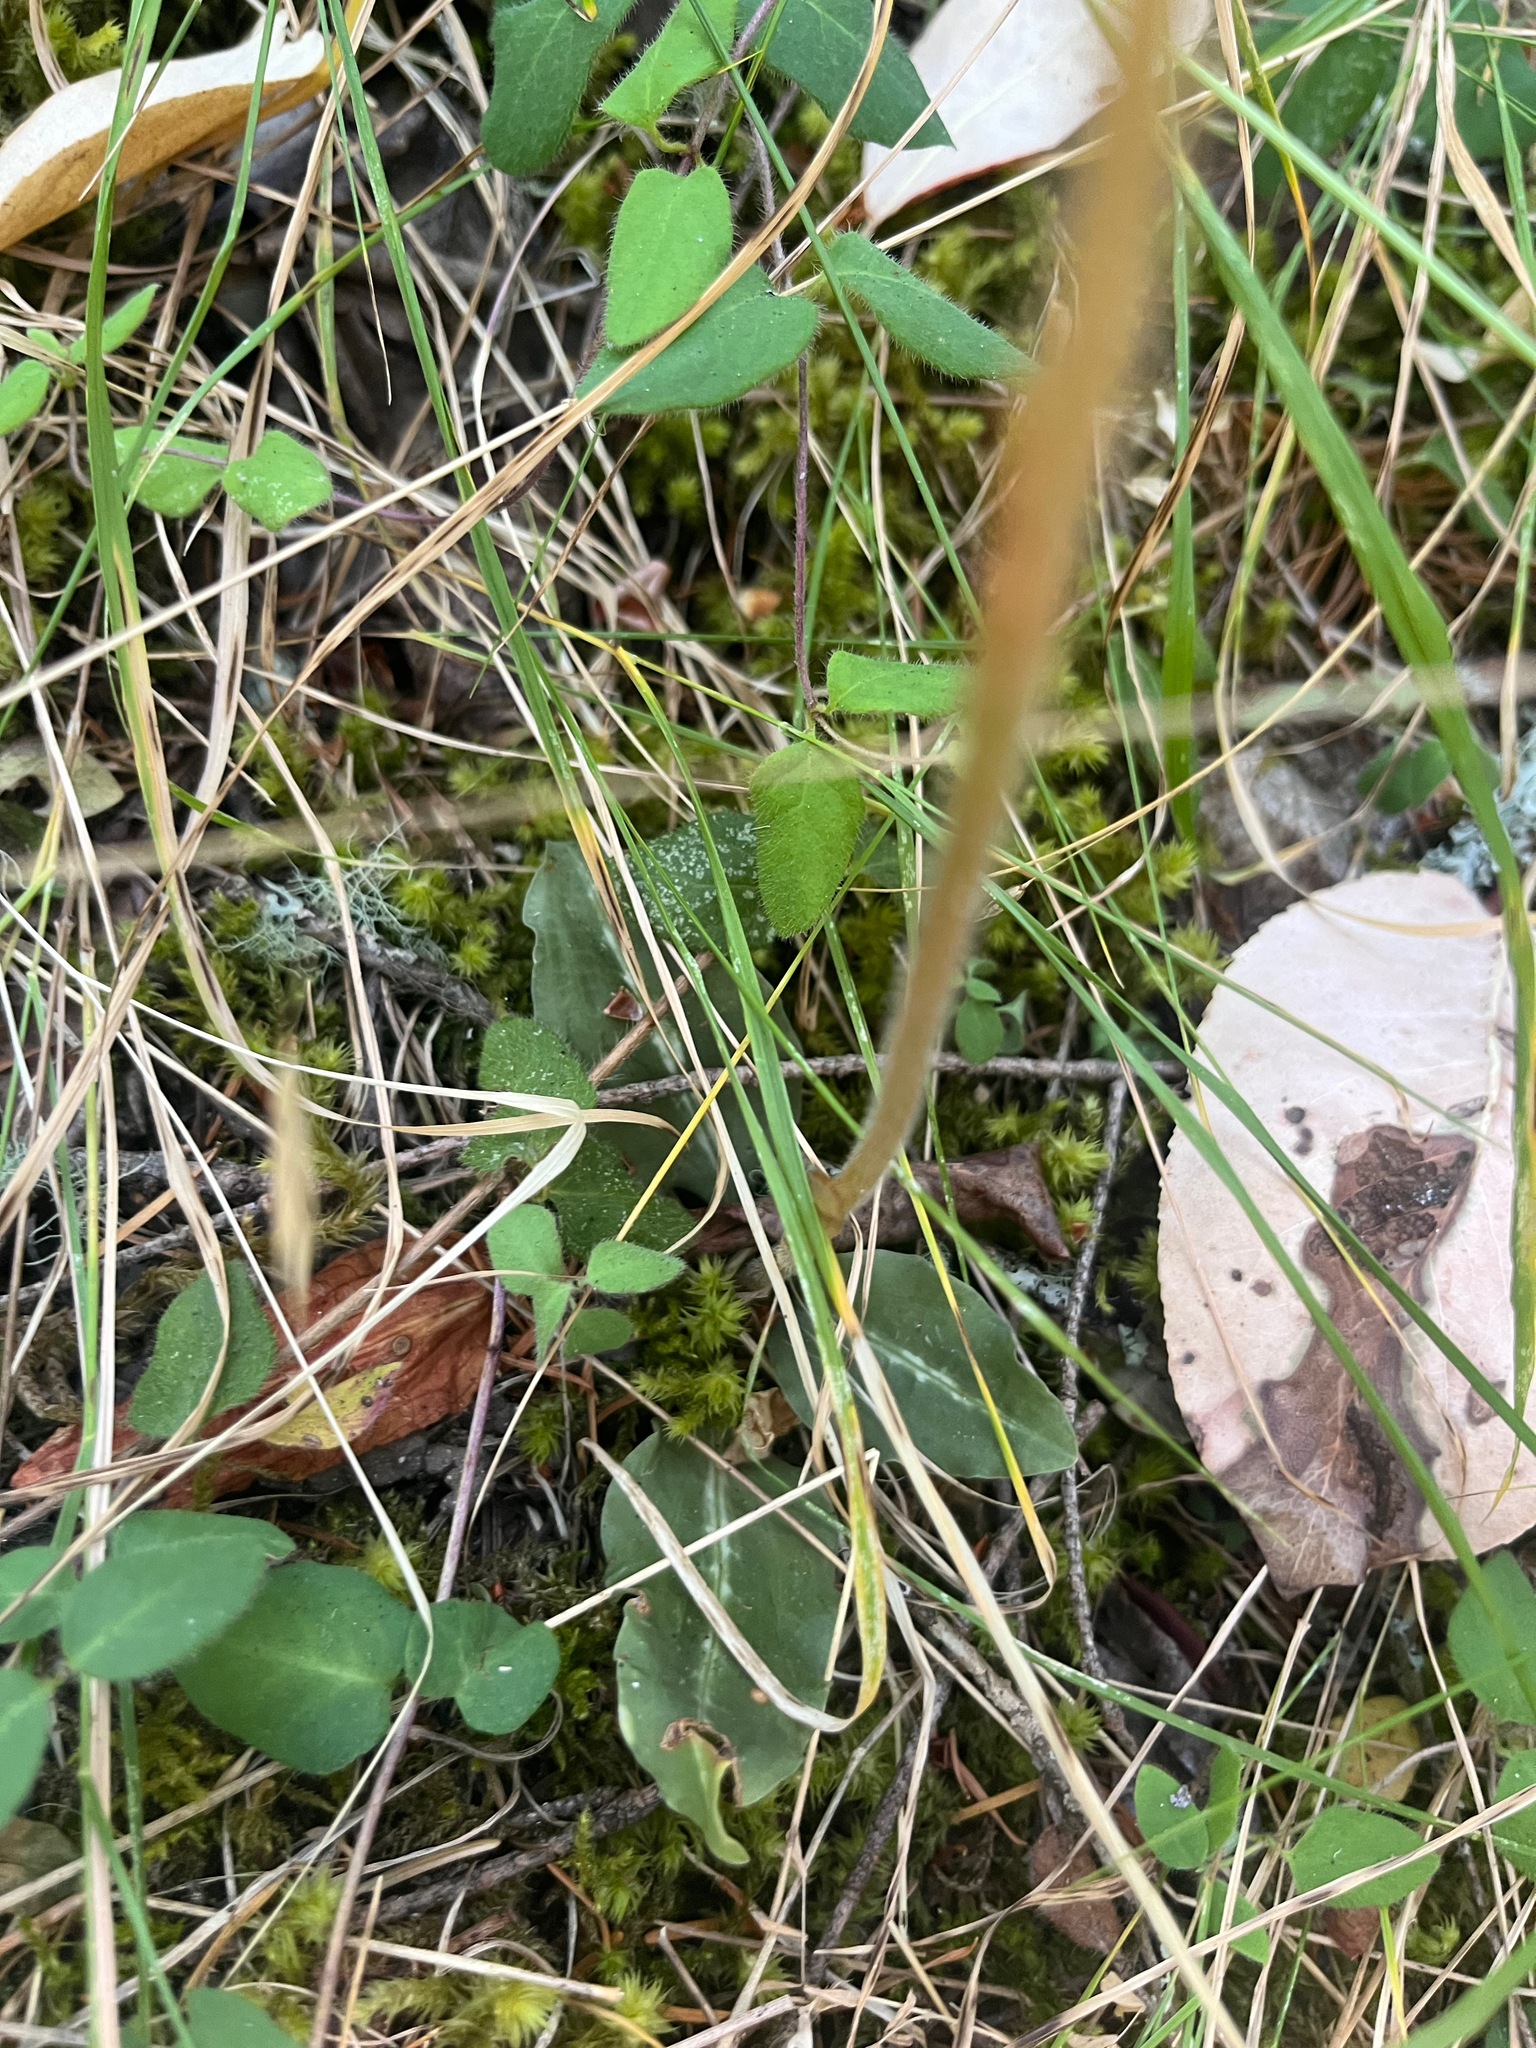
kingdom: Plantae
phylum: Tracheophyta
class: Liliopsida
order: Asparagales
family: Orchidaceae
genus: Goodyera
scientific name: Goodyera oblongifolia
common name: Giant rattlesnake-plantain
